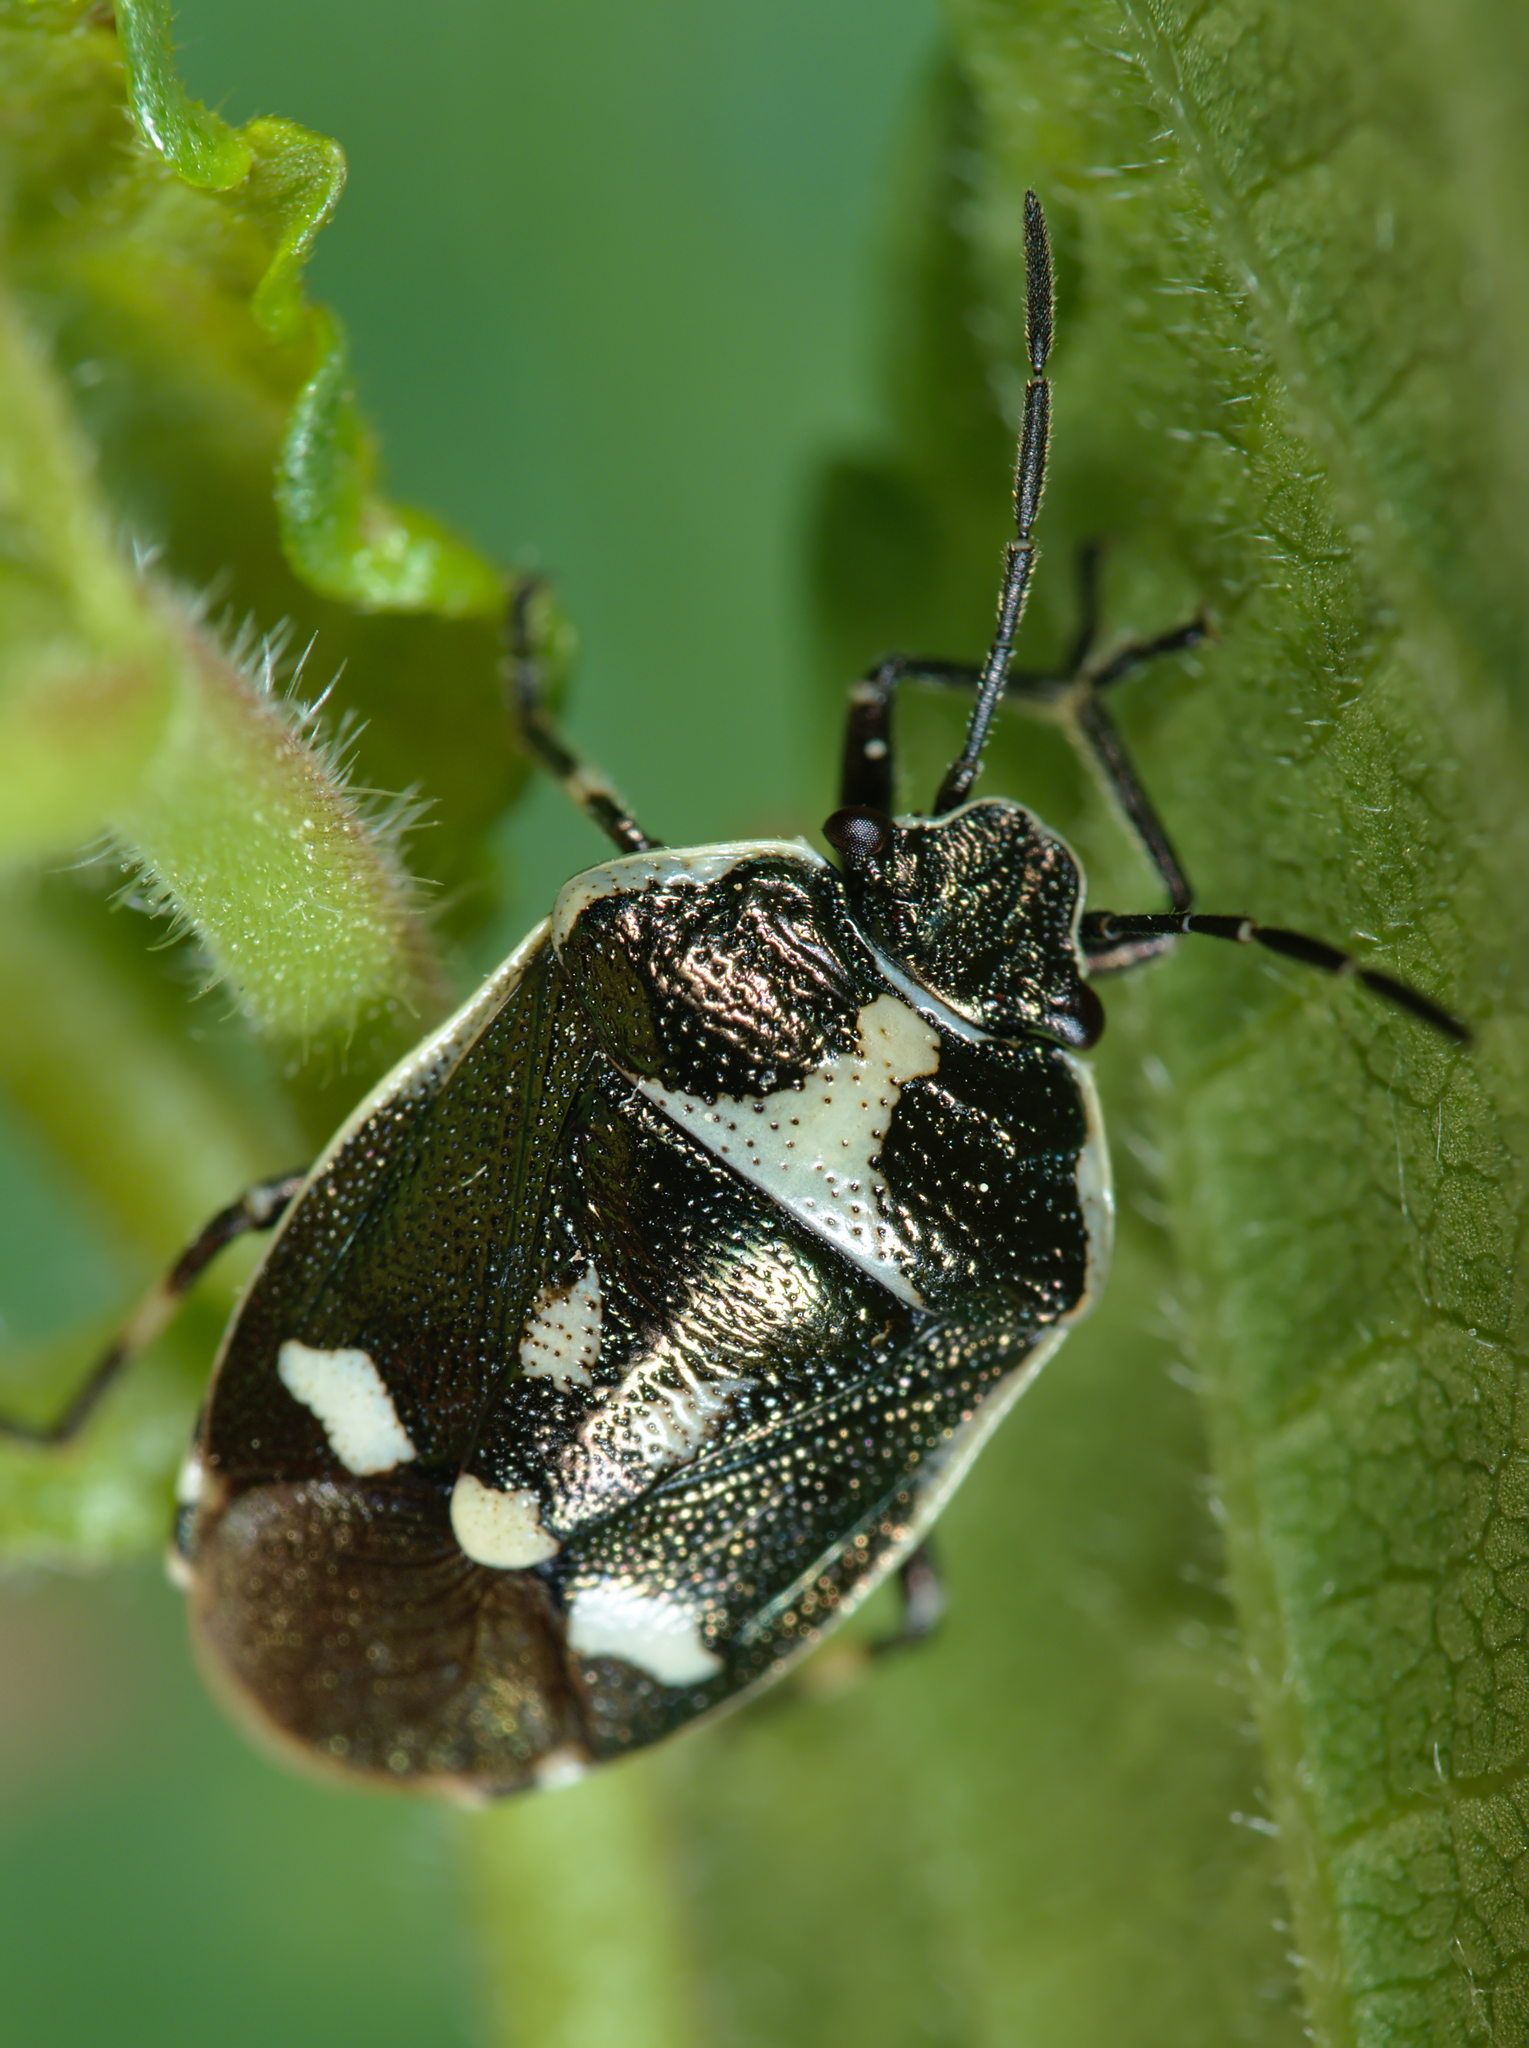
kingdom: Animalia
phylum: Arthropoda
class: Insecta
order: Hemiptera
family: Pentatomidae
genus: Eurydema
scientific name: Eurydema oleracea
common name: Cabbage bug
